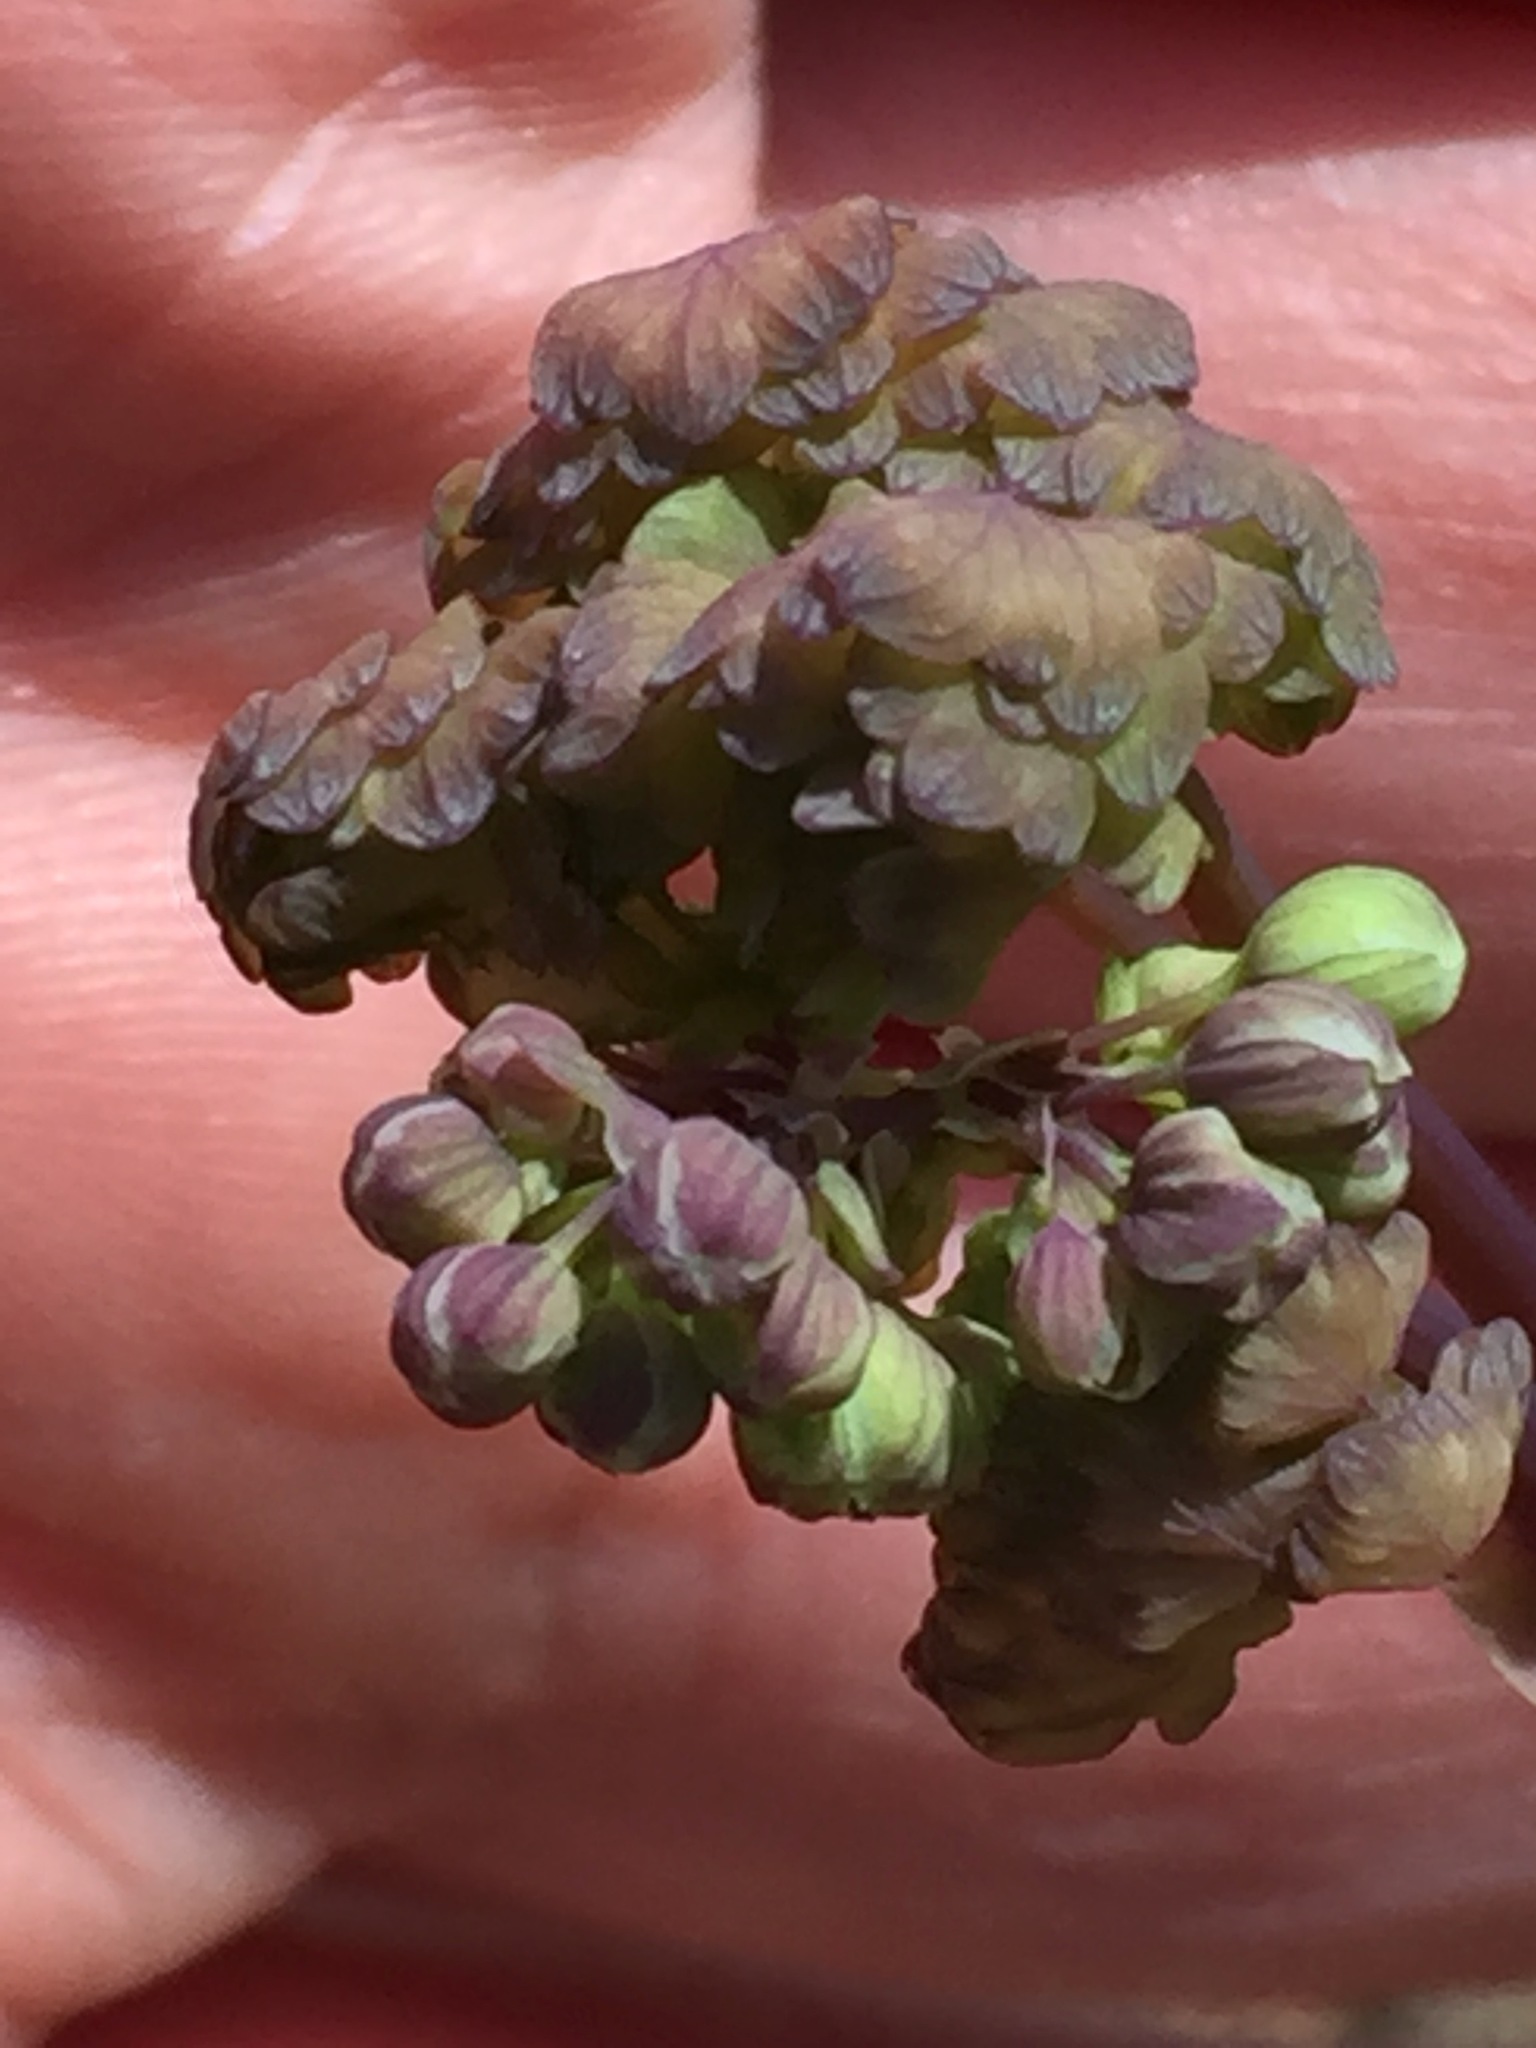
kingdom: Plantae
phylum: Tracheophyta
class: Magnoliopsida
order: Ranunculales
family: Ranunculaceae
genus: Thalictrum
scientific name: Thalictrum dioicum
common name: Early meadow-rue
